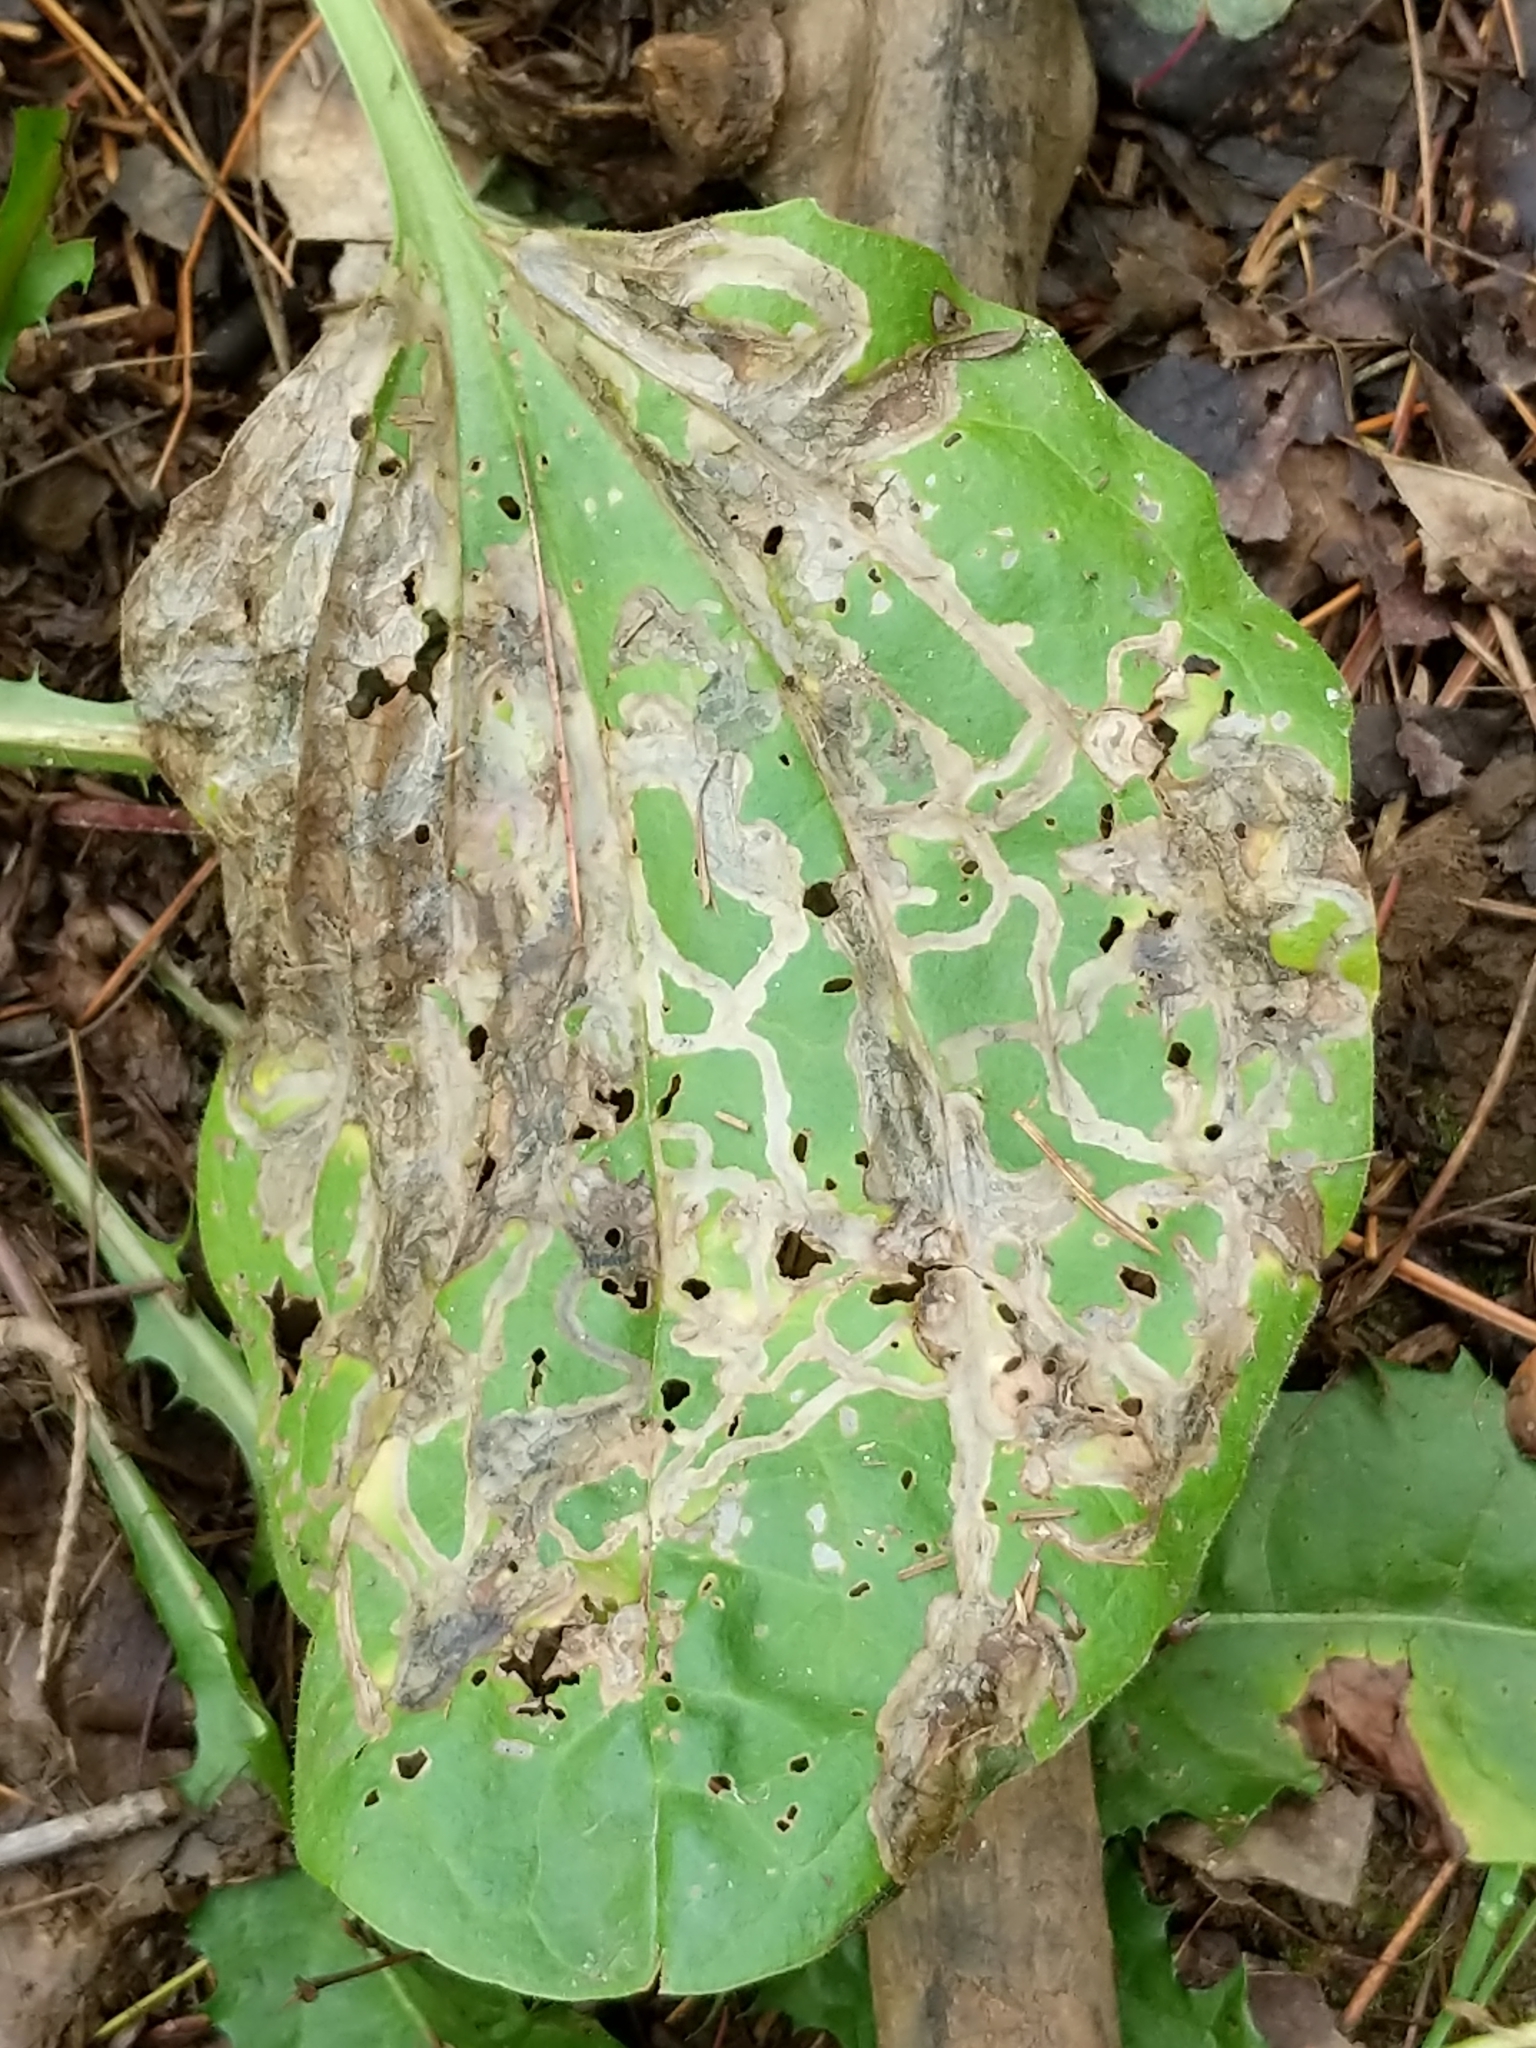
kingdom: Animalia
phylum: Arthropoda
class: Insecta
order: Coleoptera
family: Chrysomelidae
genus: Dibolia
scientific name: Dibolia borealis
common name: Northern plantain flea beetle
